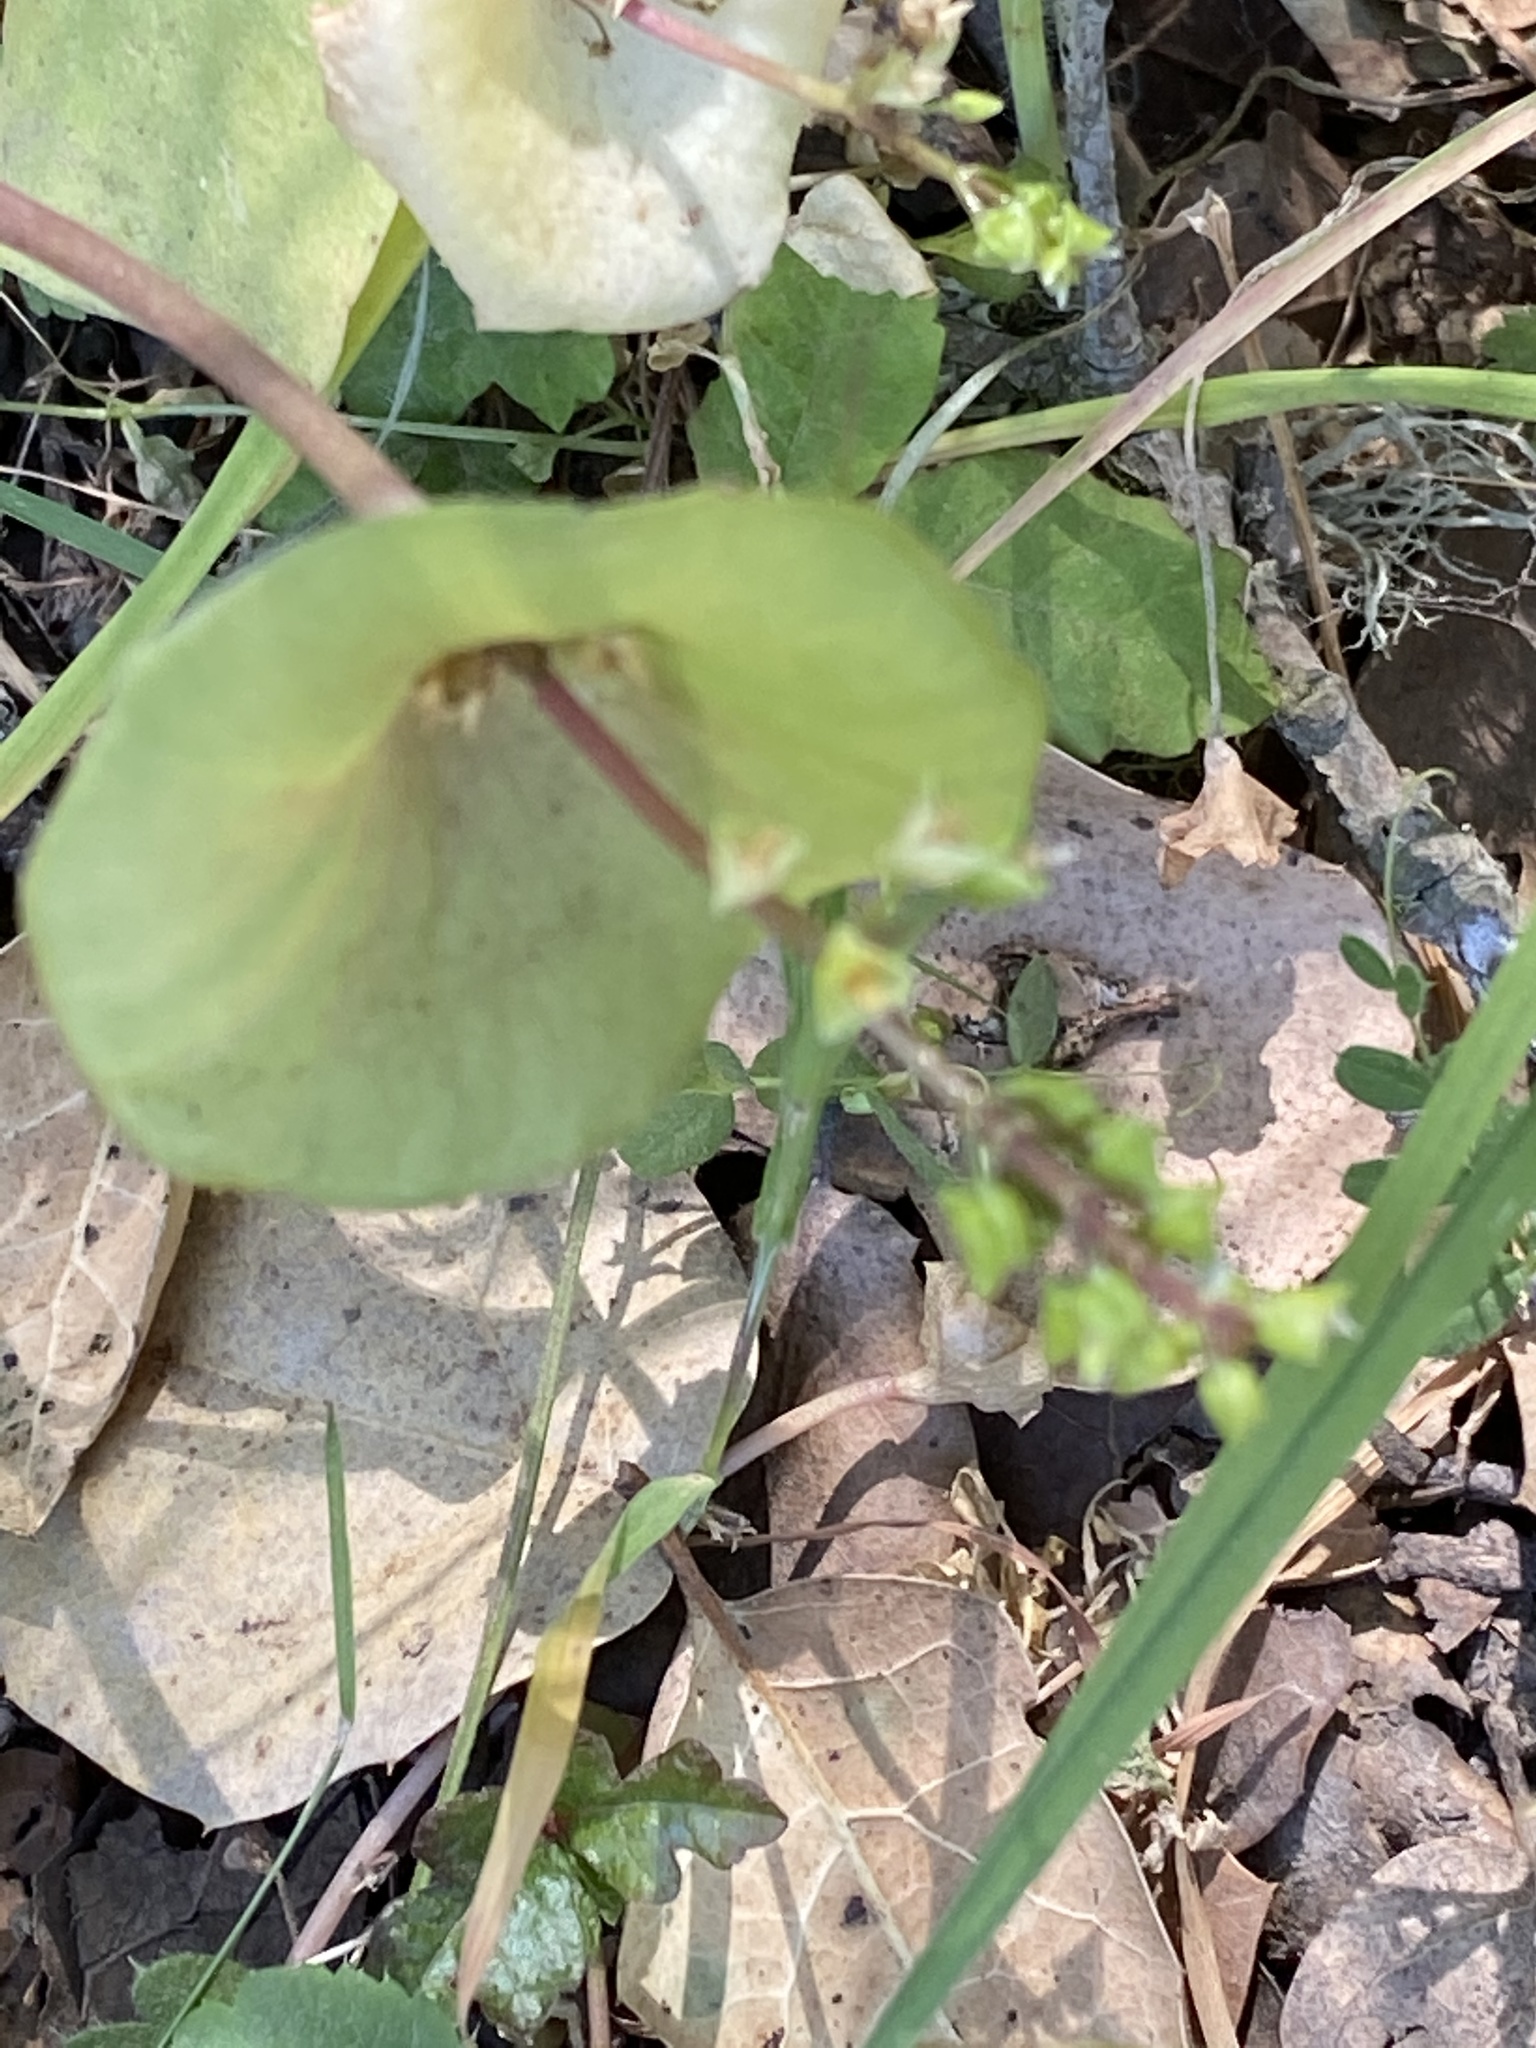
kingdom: Plantae
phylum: Tracheophyta
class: Magnoliopsida
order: Caryophyllales
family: Montiaceae
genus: Claytonia
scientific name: Claytonia perfoliata
